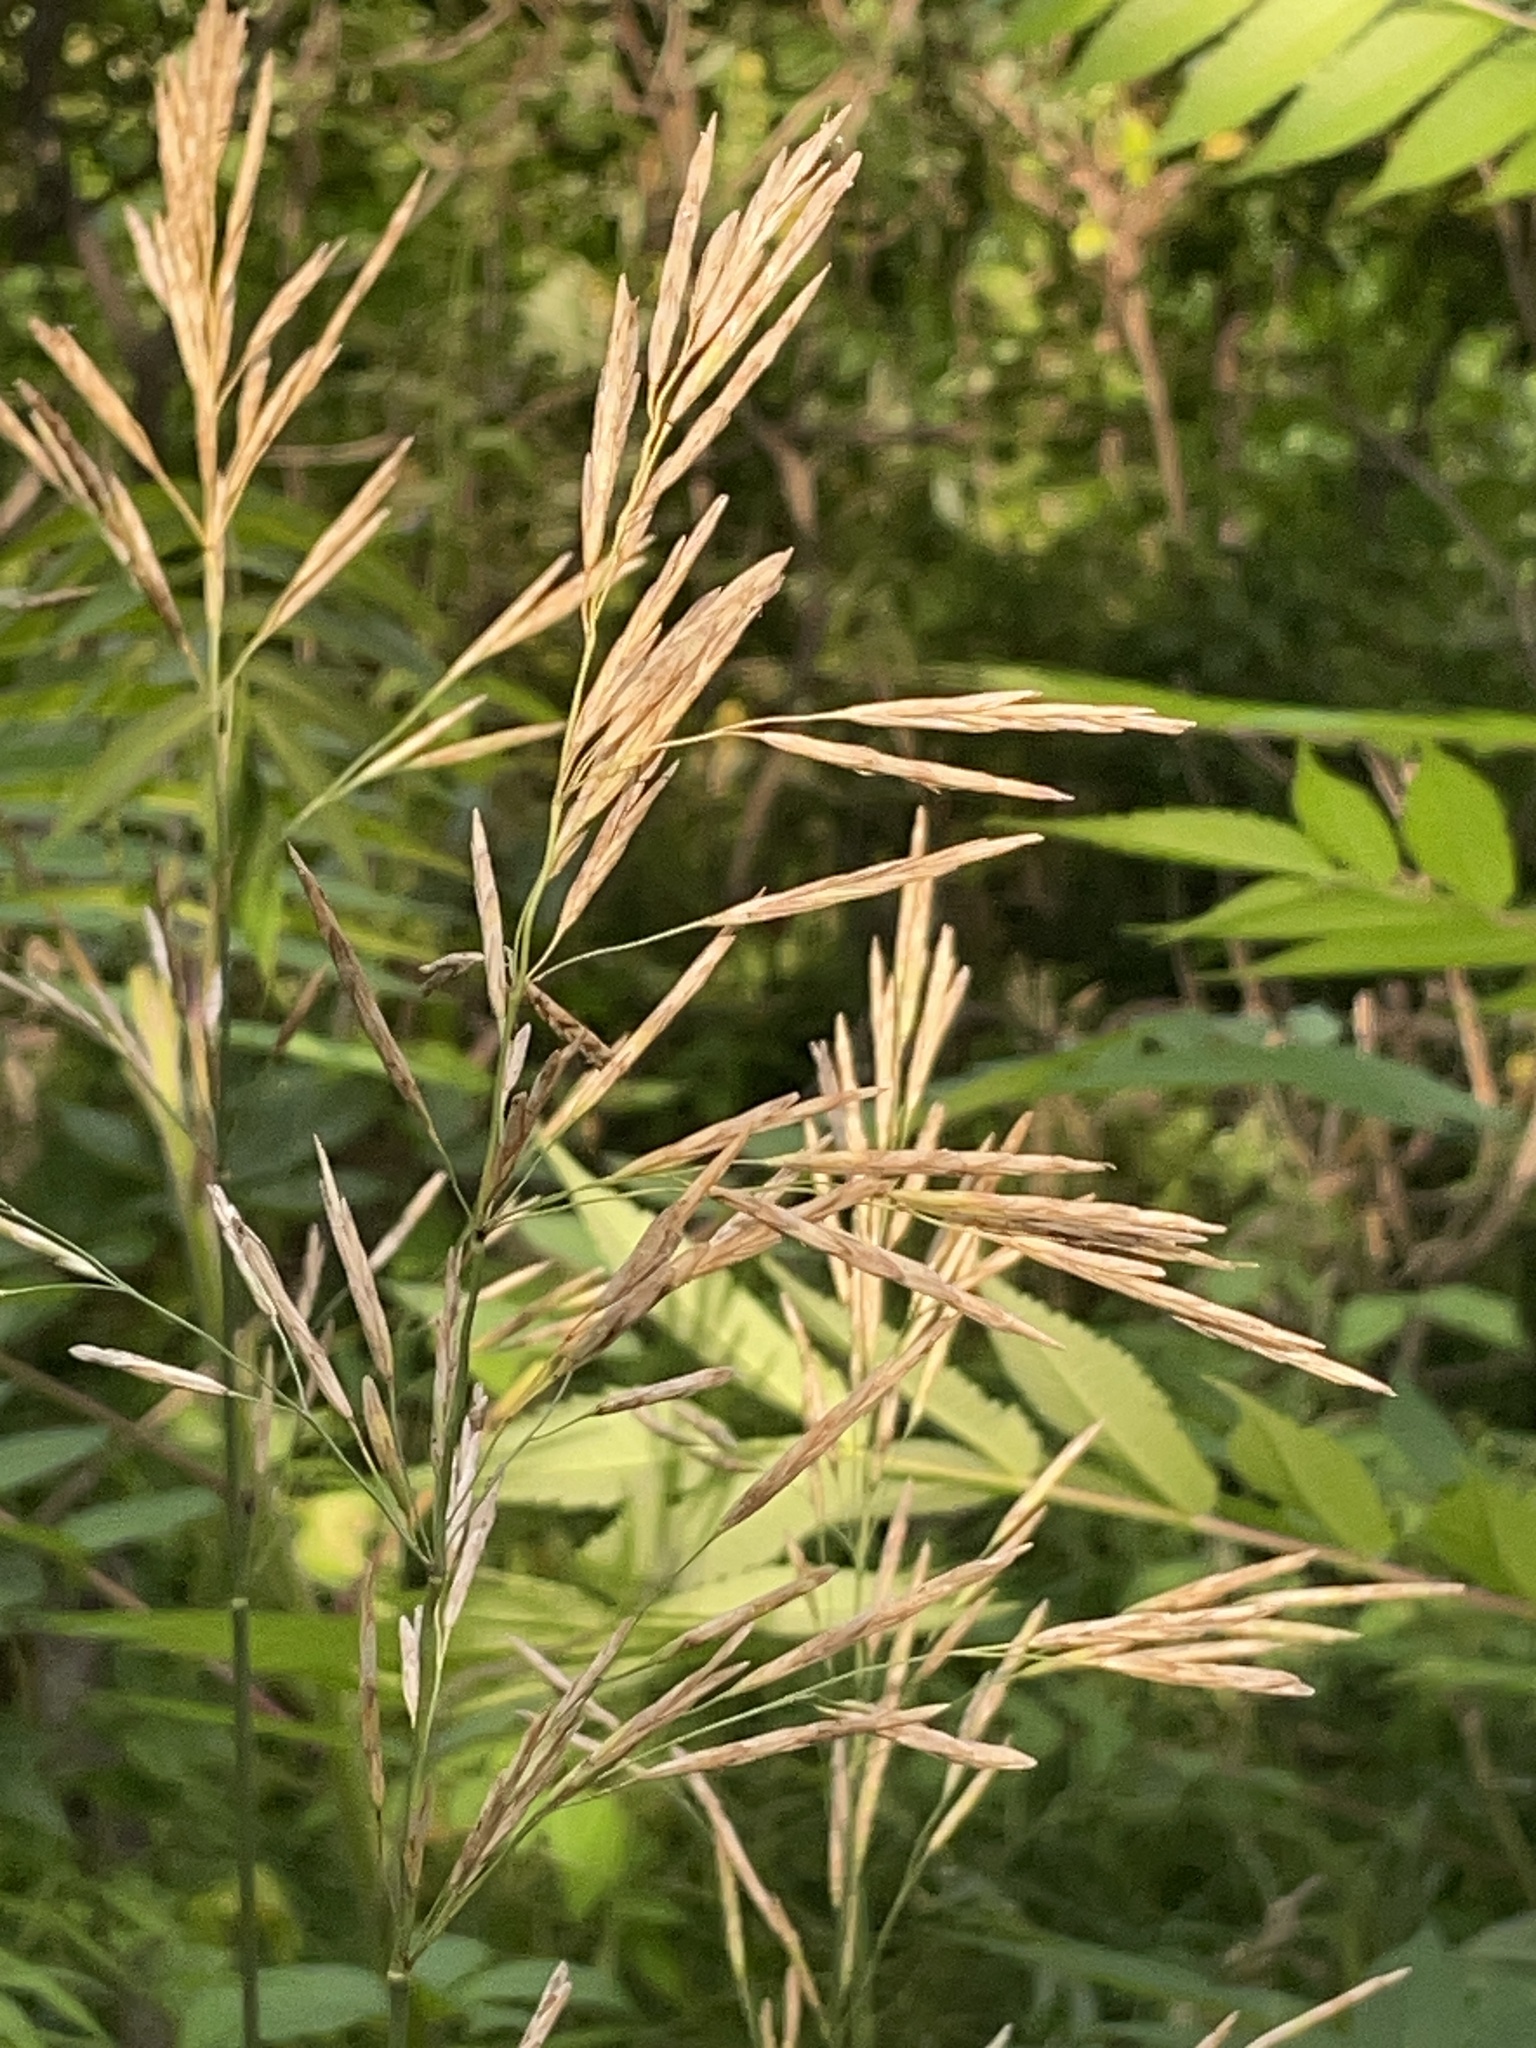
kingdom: Plantae
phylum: Tracheophyta
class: Liliopsida
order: Poales
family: Poaceae
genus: Bromus
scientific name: Bromus inermis
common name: Smooth brome
